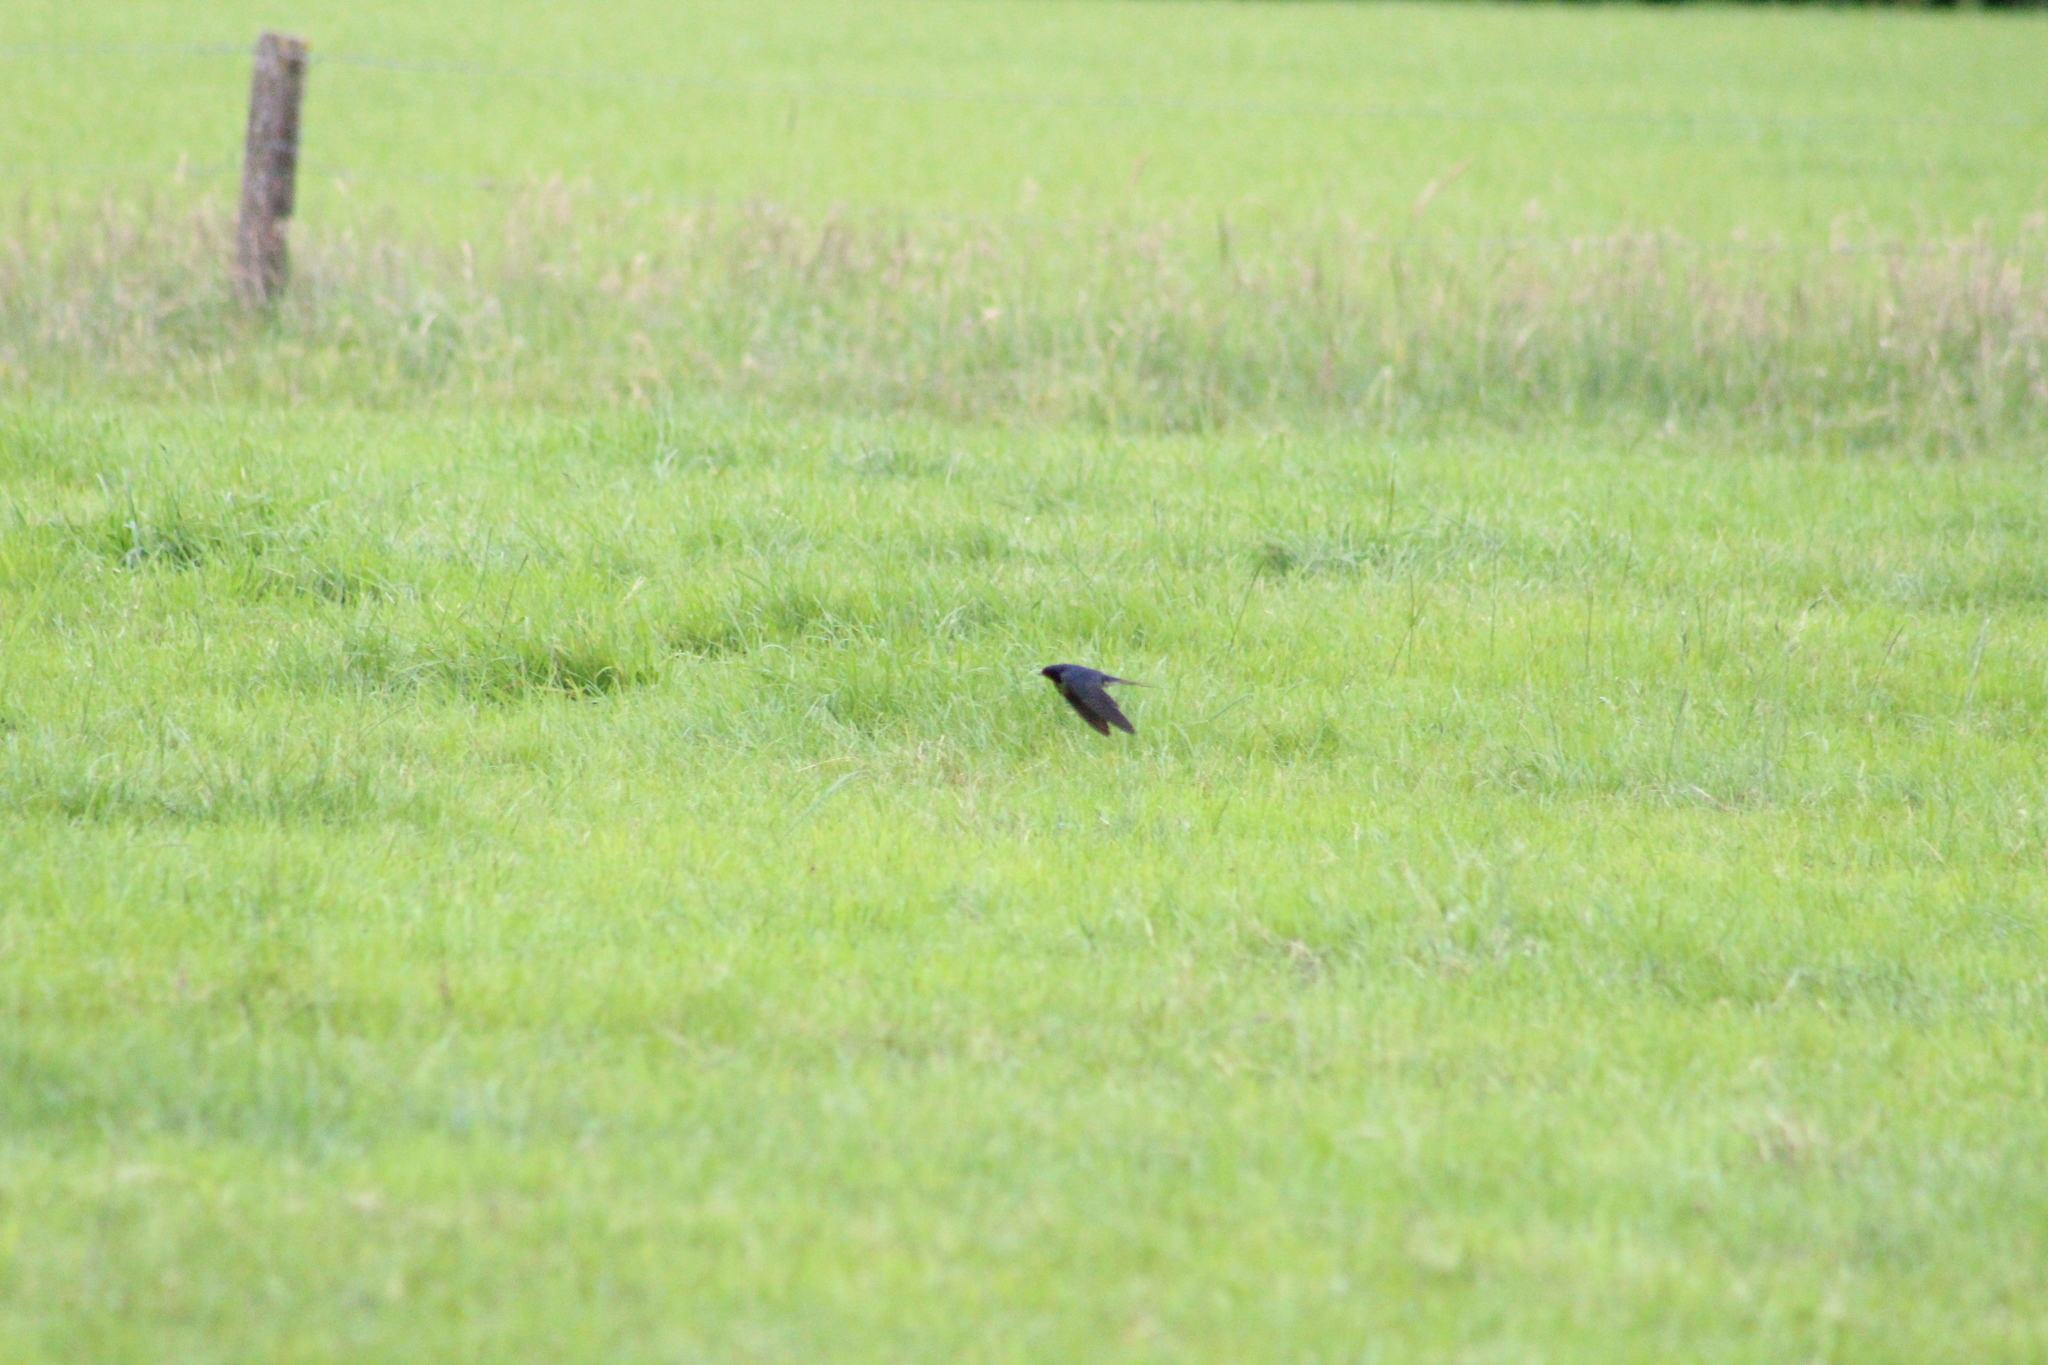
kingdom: Animalia
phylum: Chordata
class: Aves
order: Passeriformes
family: Hirundinidae
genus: Hirundo
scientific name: Hirundo rustica
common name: Barn swallow
